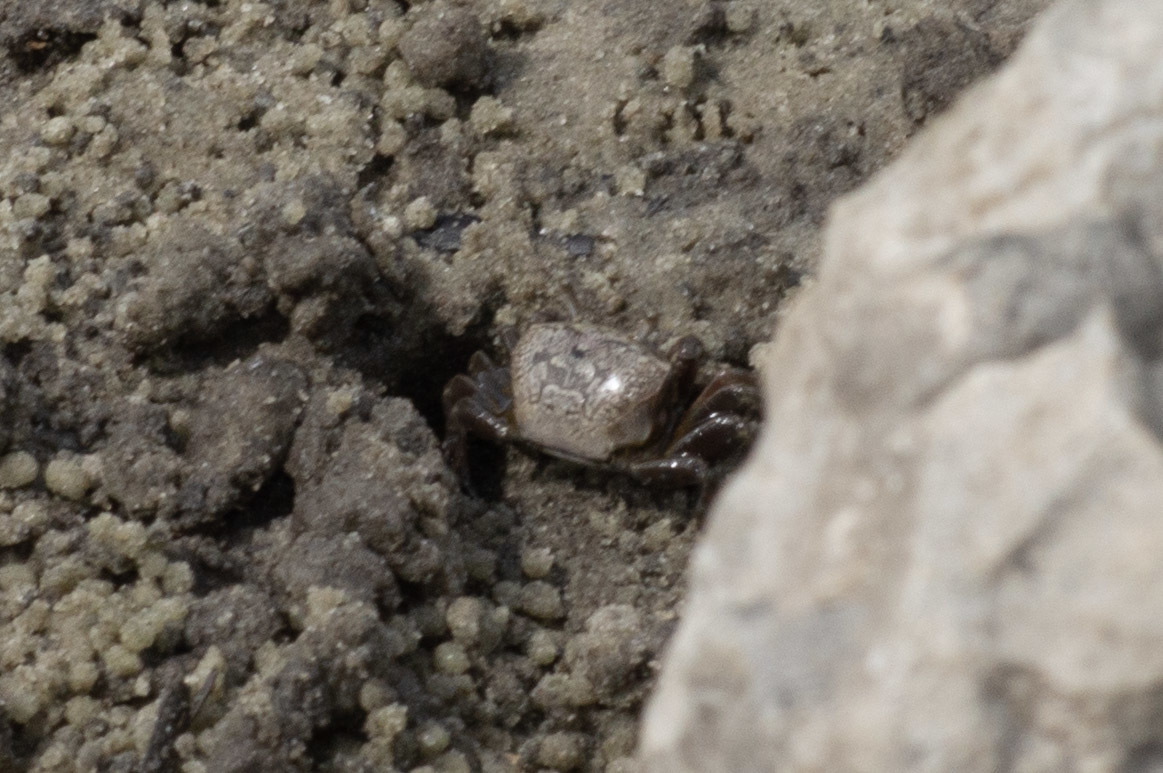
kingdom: Animalia
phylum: Arthropoda
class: Malacostraca
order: Decapoda
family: Ocypodidae
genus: Leptuca
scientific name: Leptuca pugilator
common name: Atlantic sand fiddler crab
